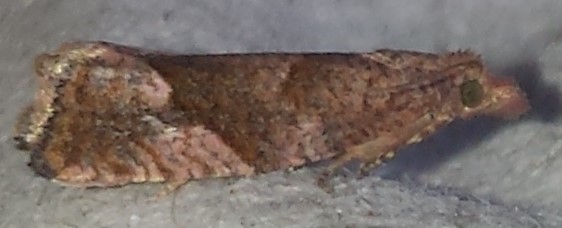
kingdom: Animalia
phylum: Arthropoda
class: Insecta
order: Lepidoptera
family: Tortricidae
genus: Pelochrista
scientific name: Pelochrista derelicta
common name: Derelict pelochrista moth
